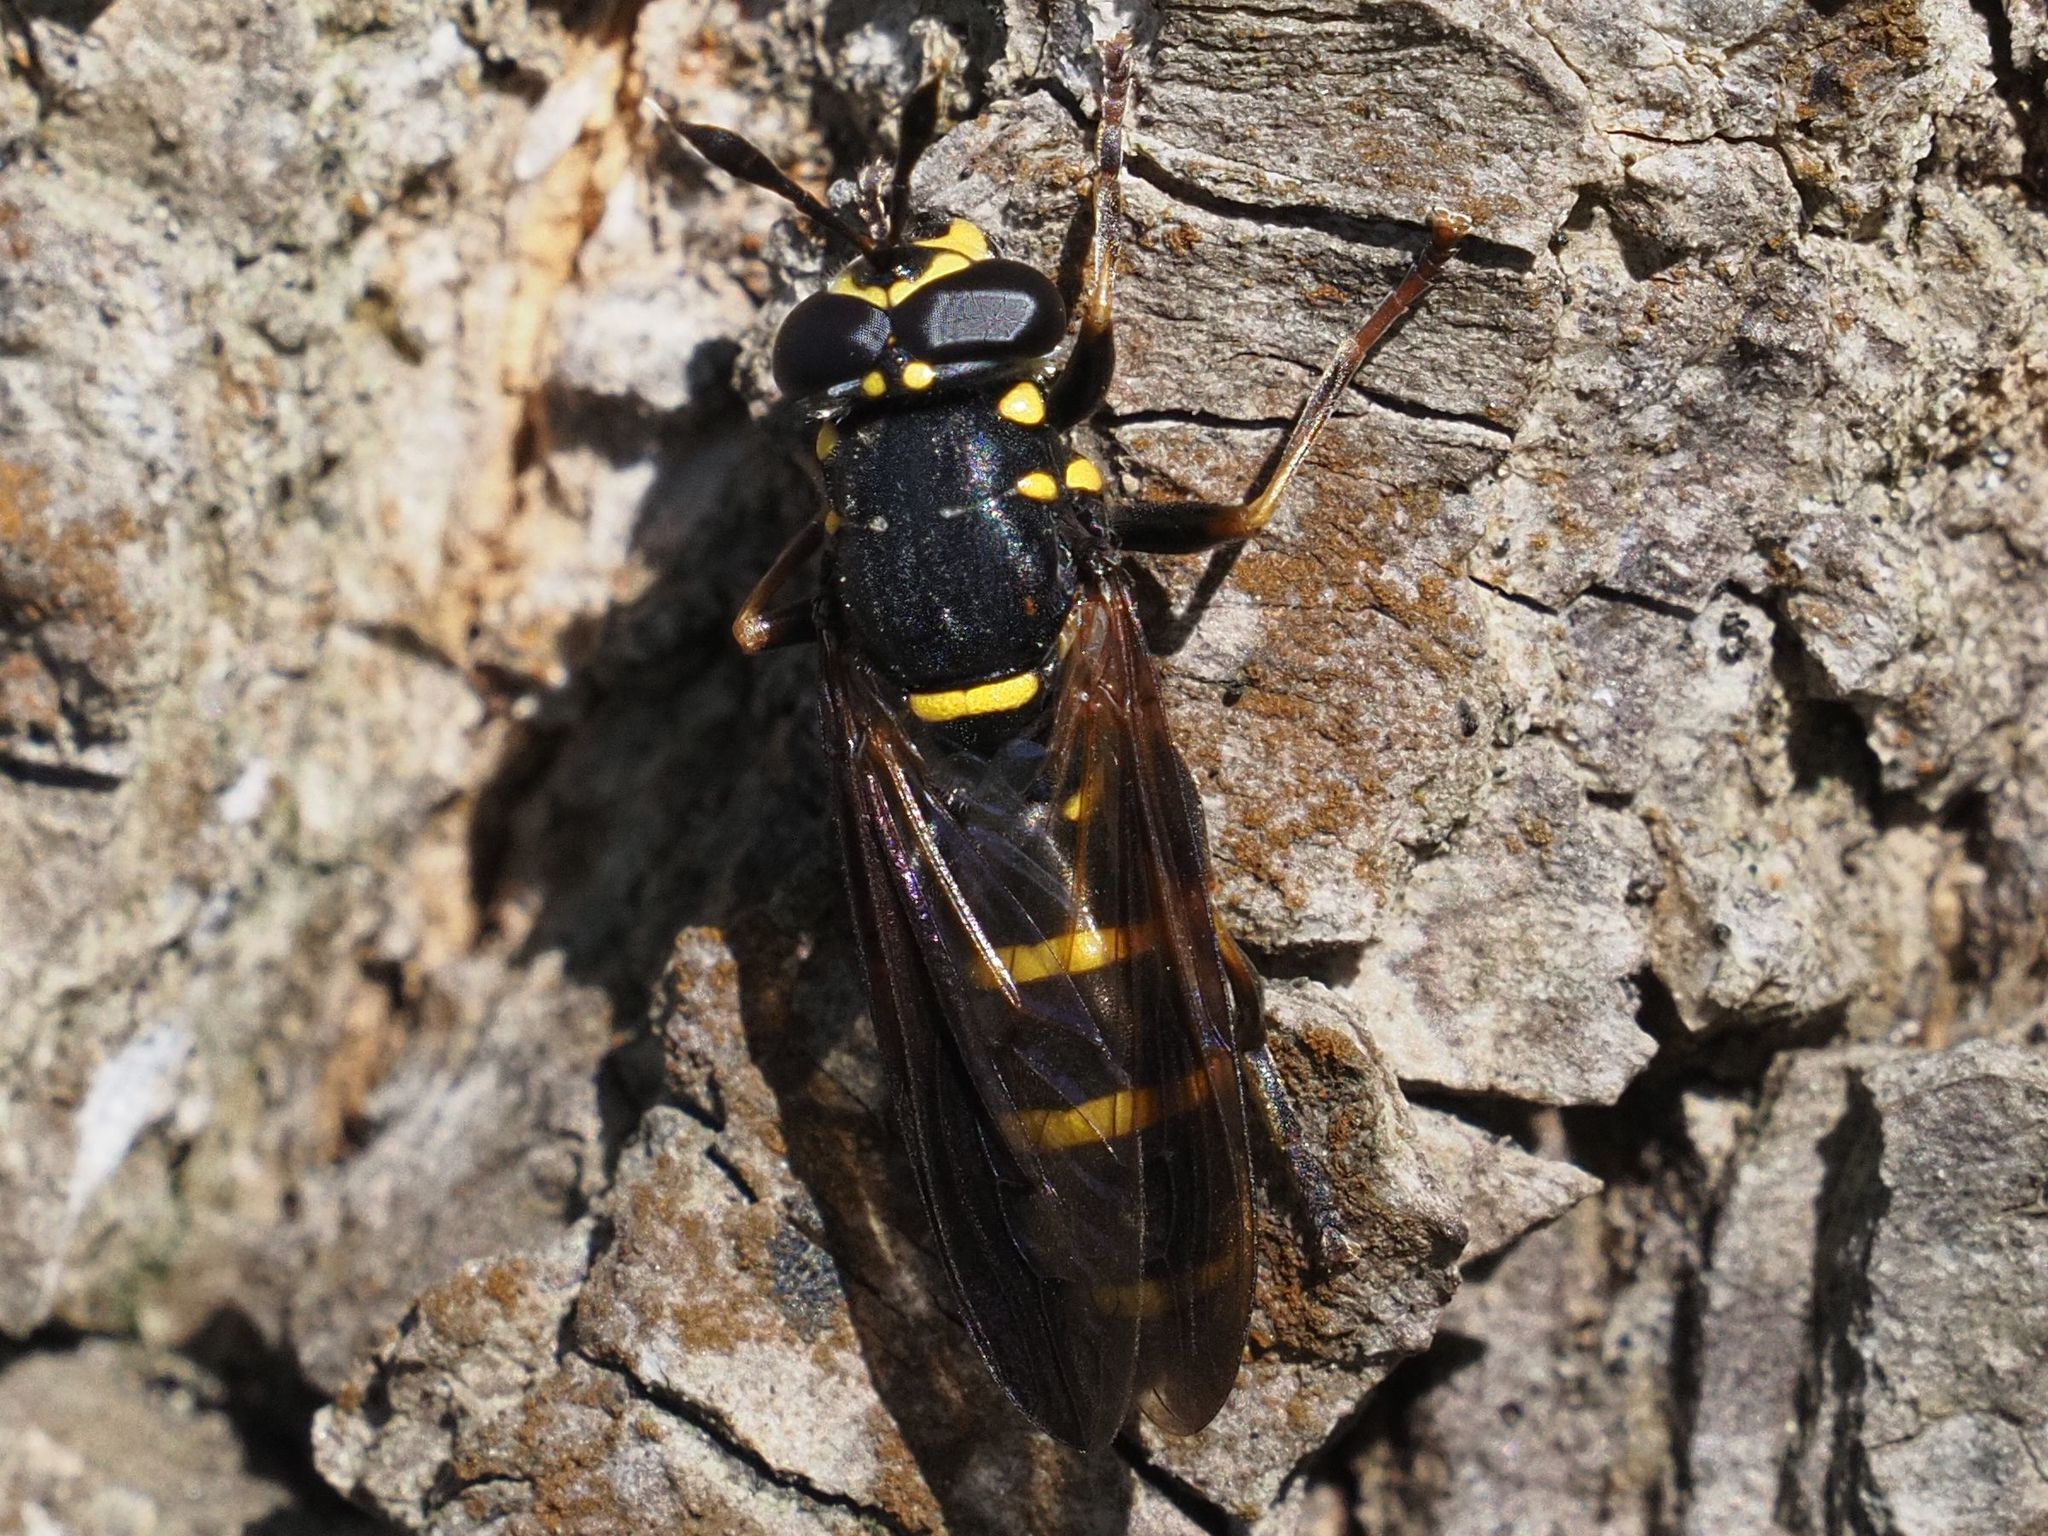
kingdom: Animalia
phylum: Arthropoda
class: Insecta
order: Diptera
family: Syrphidae
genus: Sphiximorpha
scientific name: Sphiximorpha subsessilis
